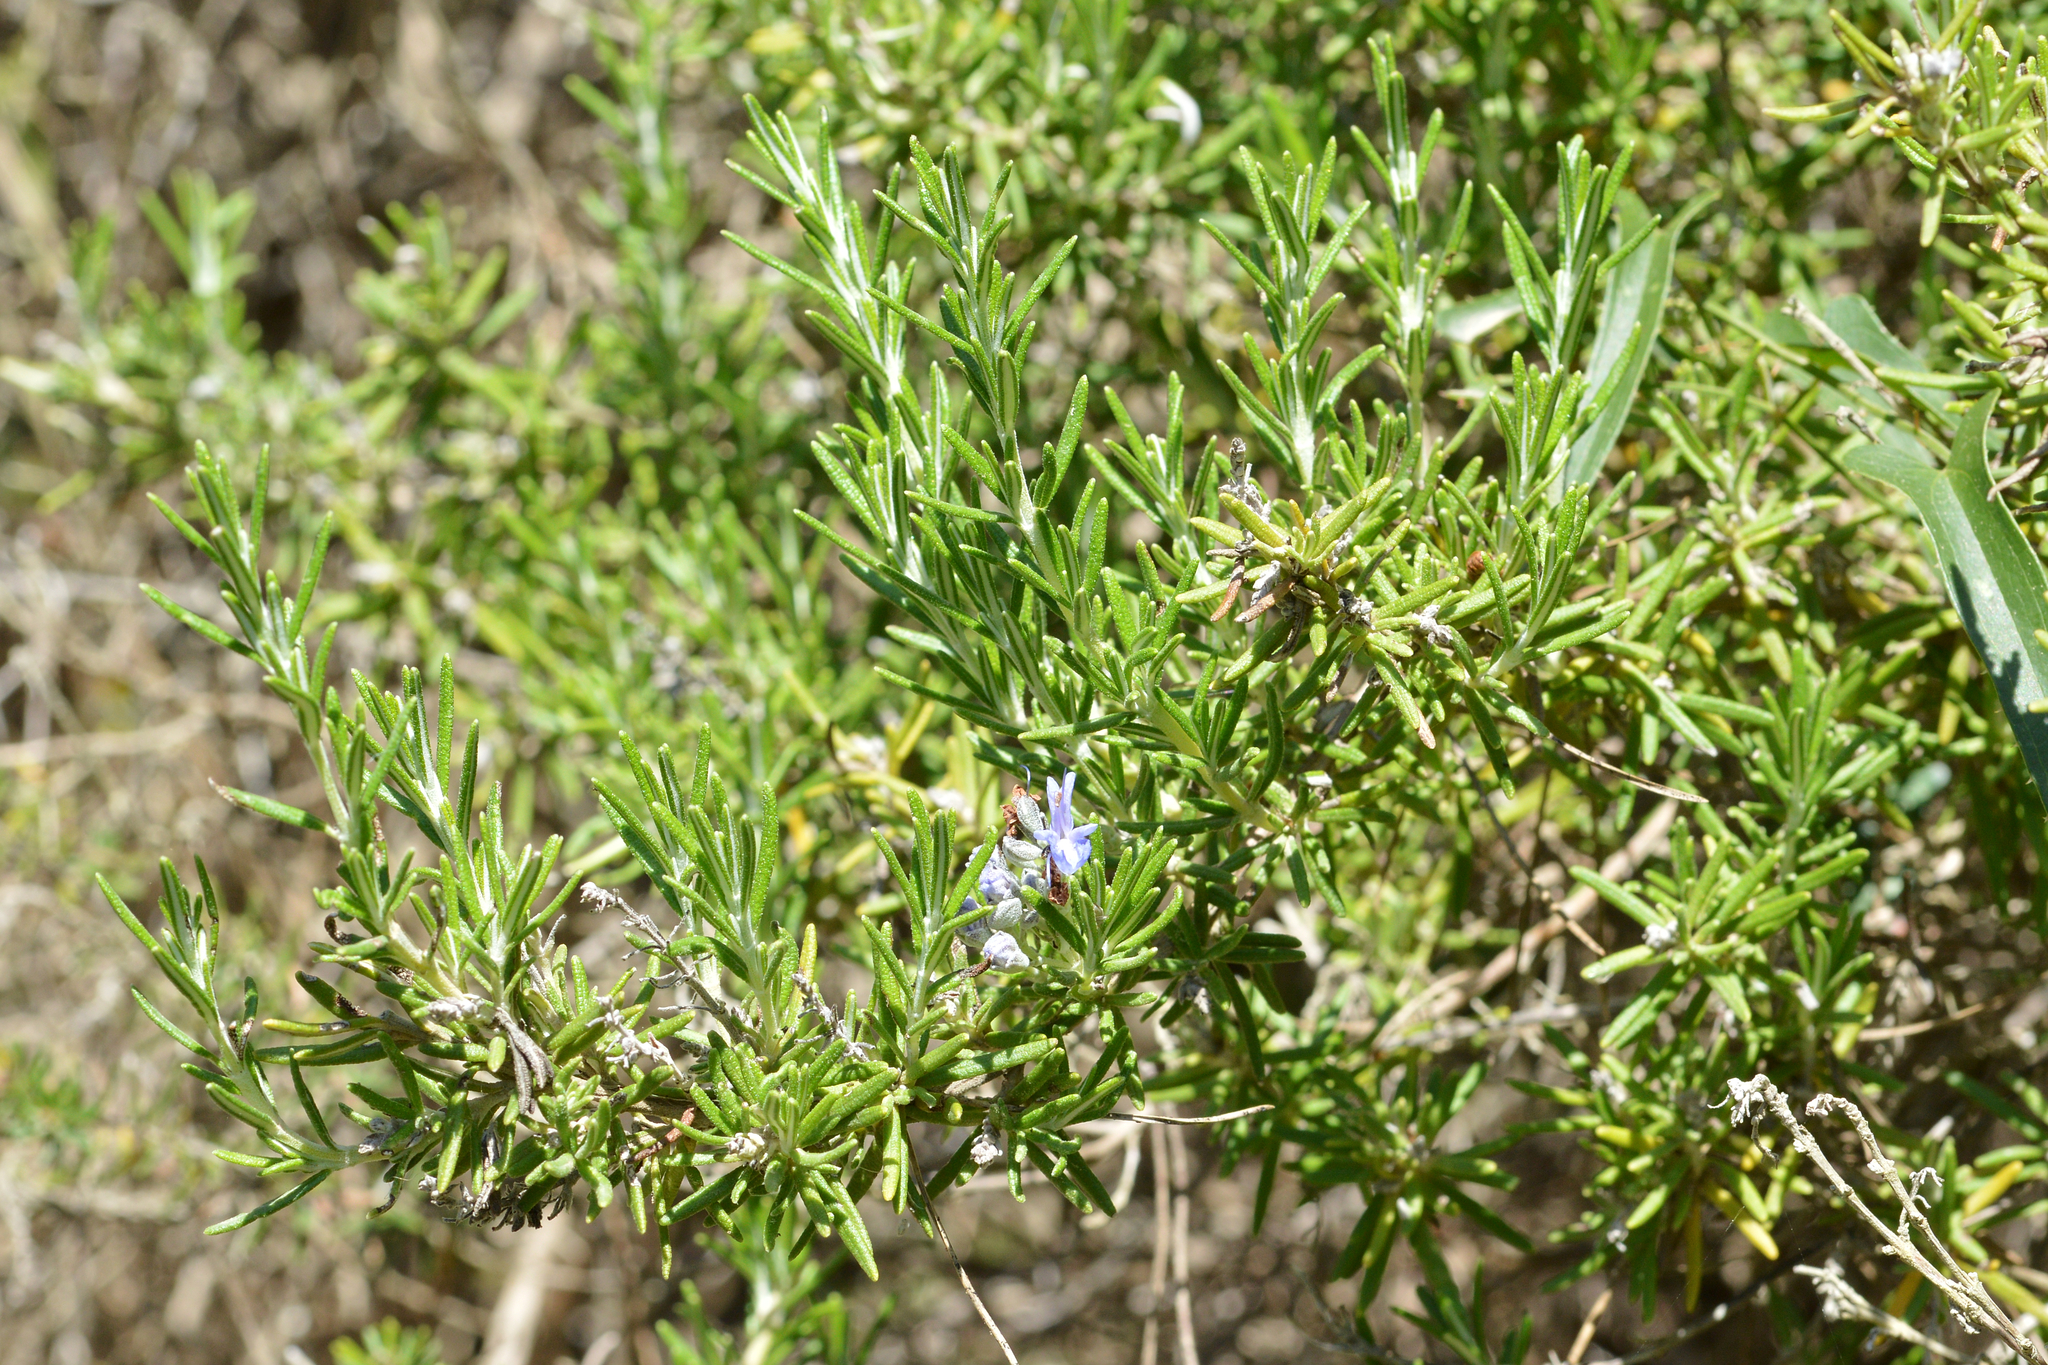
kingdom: Plantae
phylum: Tracheophyta
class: Magnoliopsida
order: Lamiales
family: Lamiaceae
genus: Salvia
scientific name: Salvia rosmarinus
